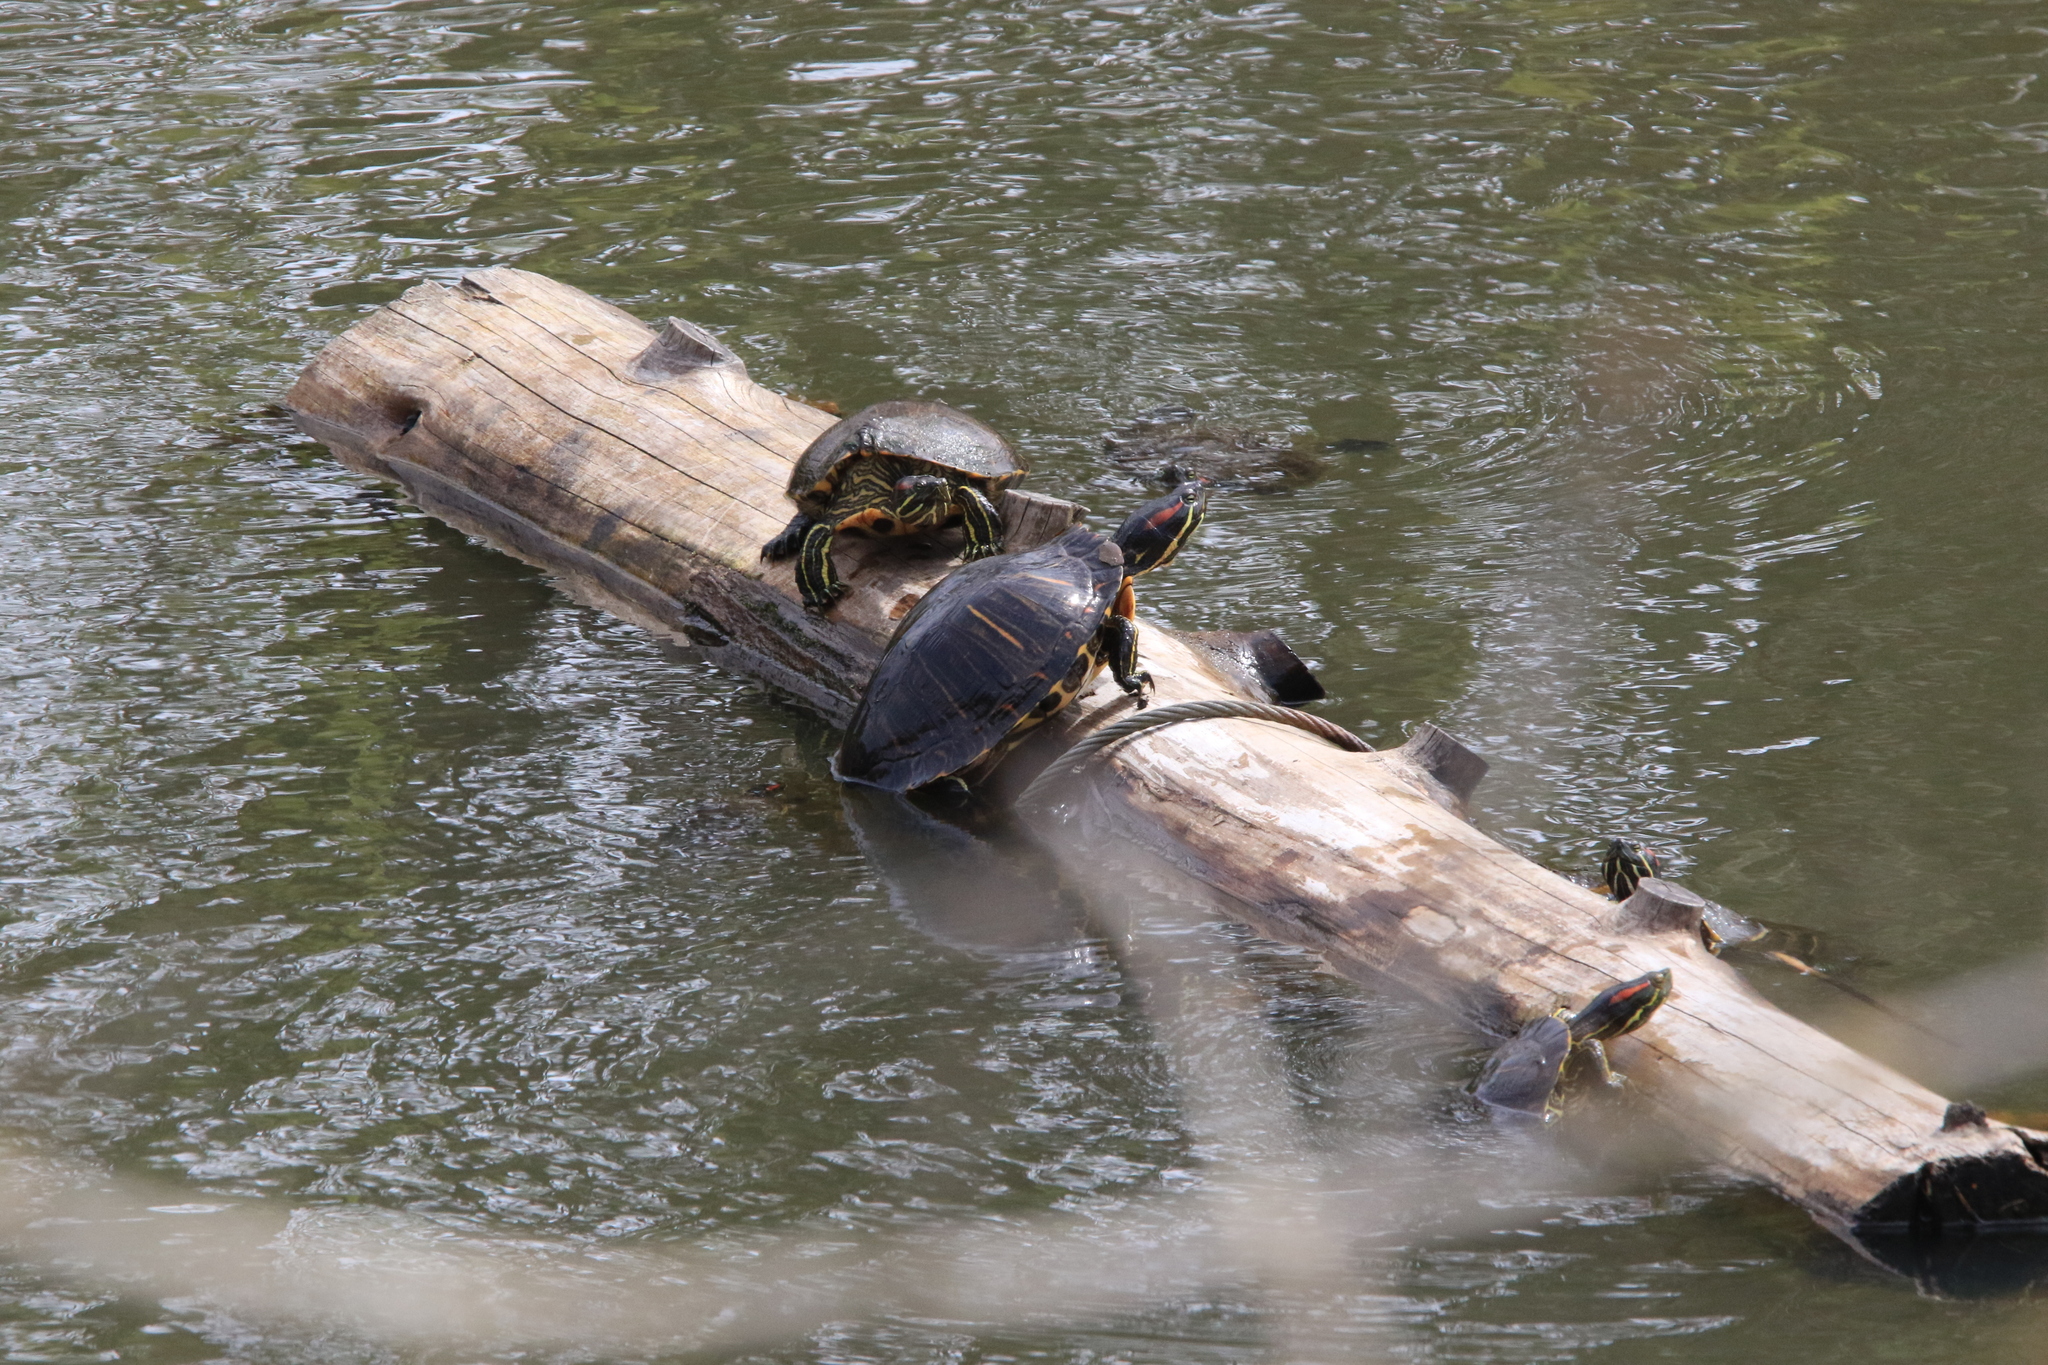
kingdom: Animalia
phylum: Chordata
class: Testudines
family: Emydidae
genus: Trachemys
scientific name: Trachemys scripta
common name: Slider
